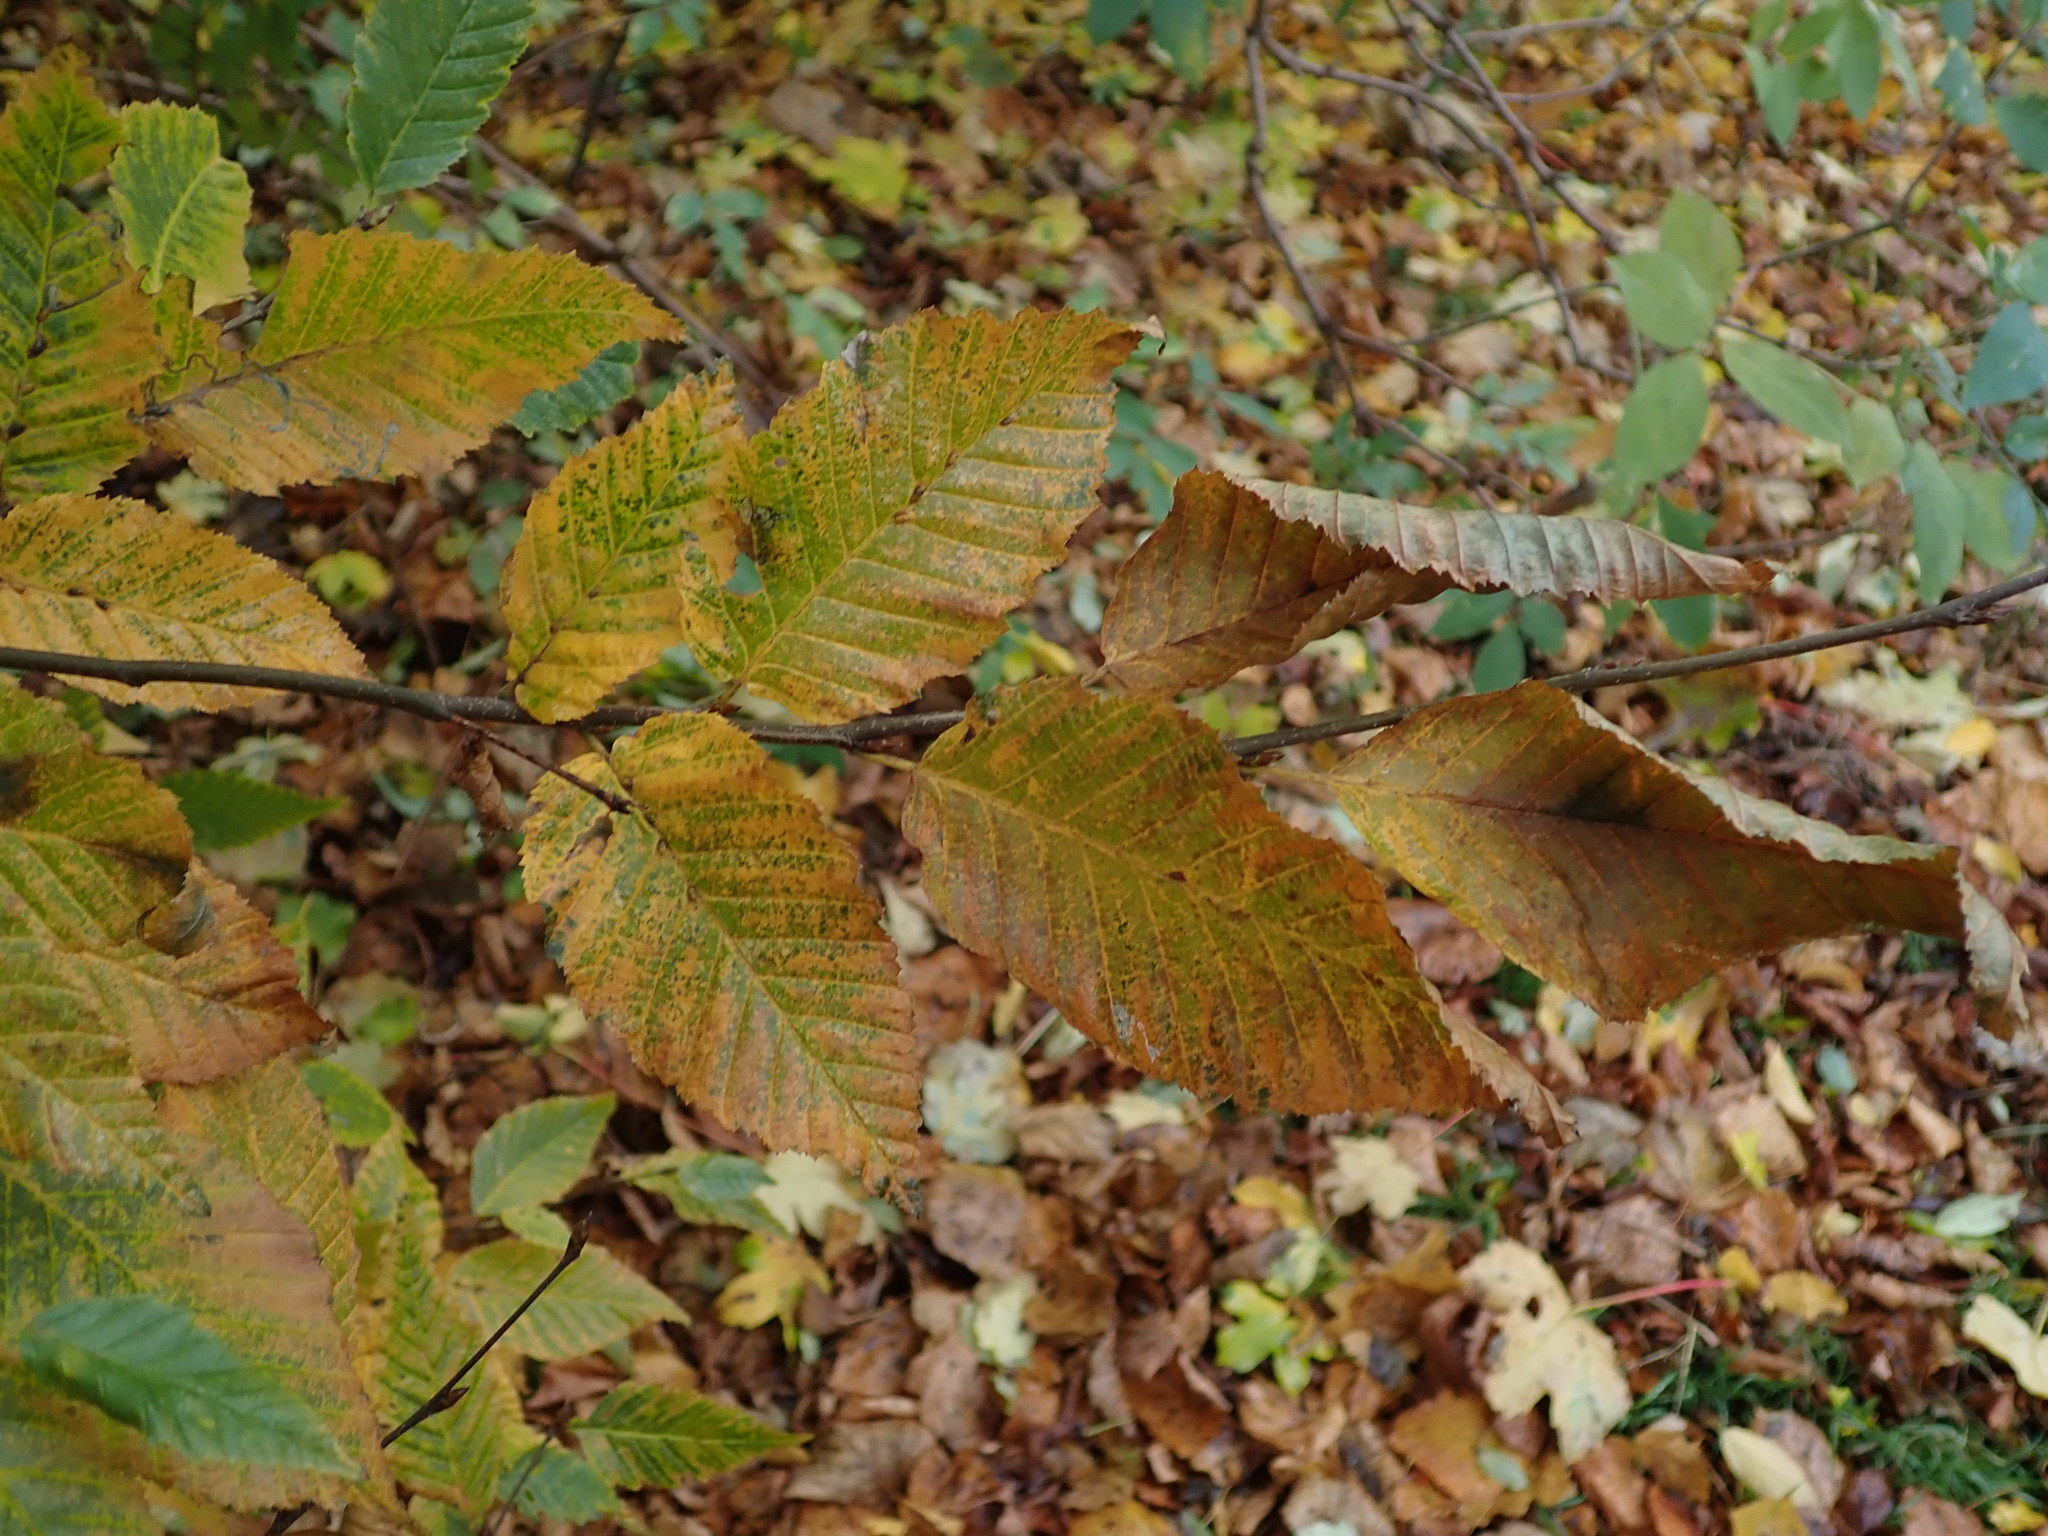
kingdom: Plantae
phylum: Tracheophyta
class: Magnoliopsida
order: Fagales
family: Betulaceae
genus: Carpinus
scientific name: Carpinus betulus
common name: Hornbeam
